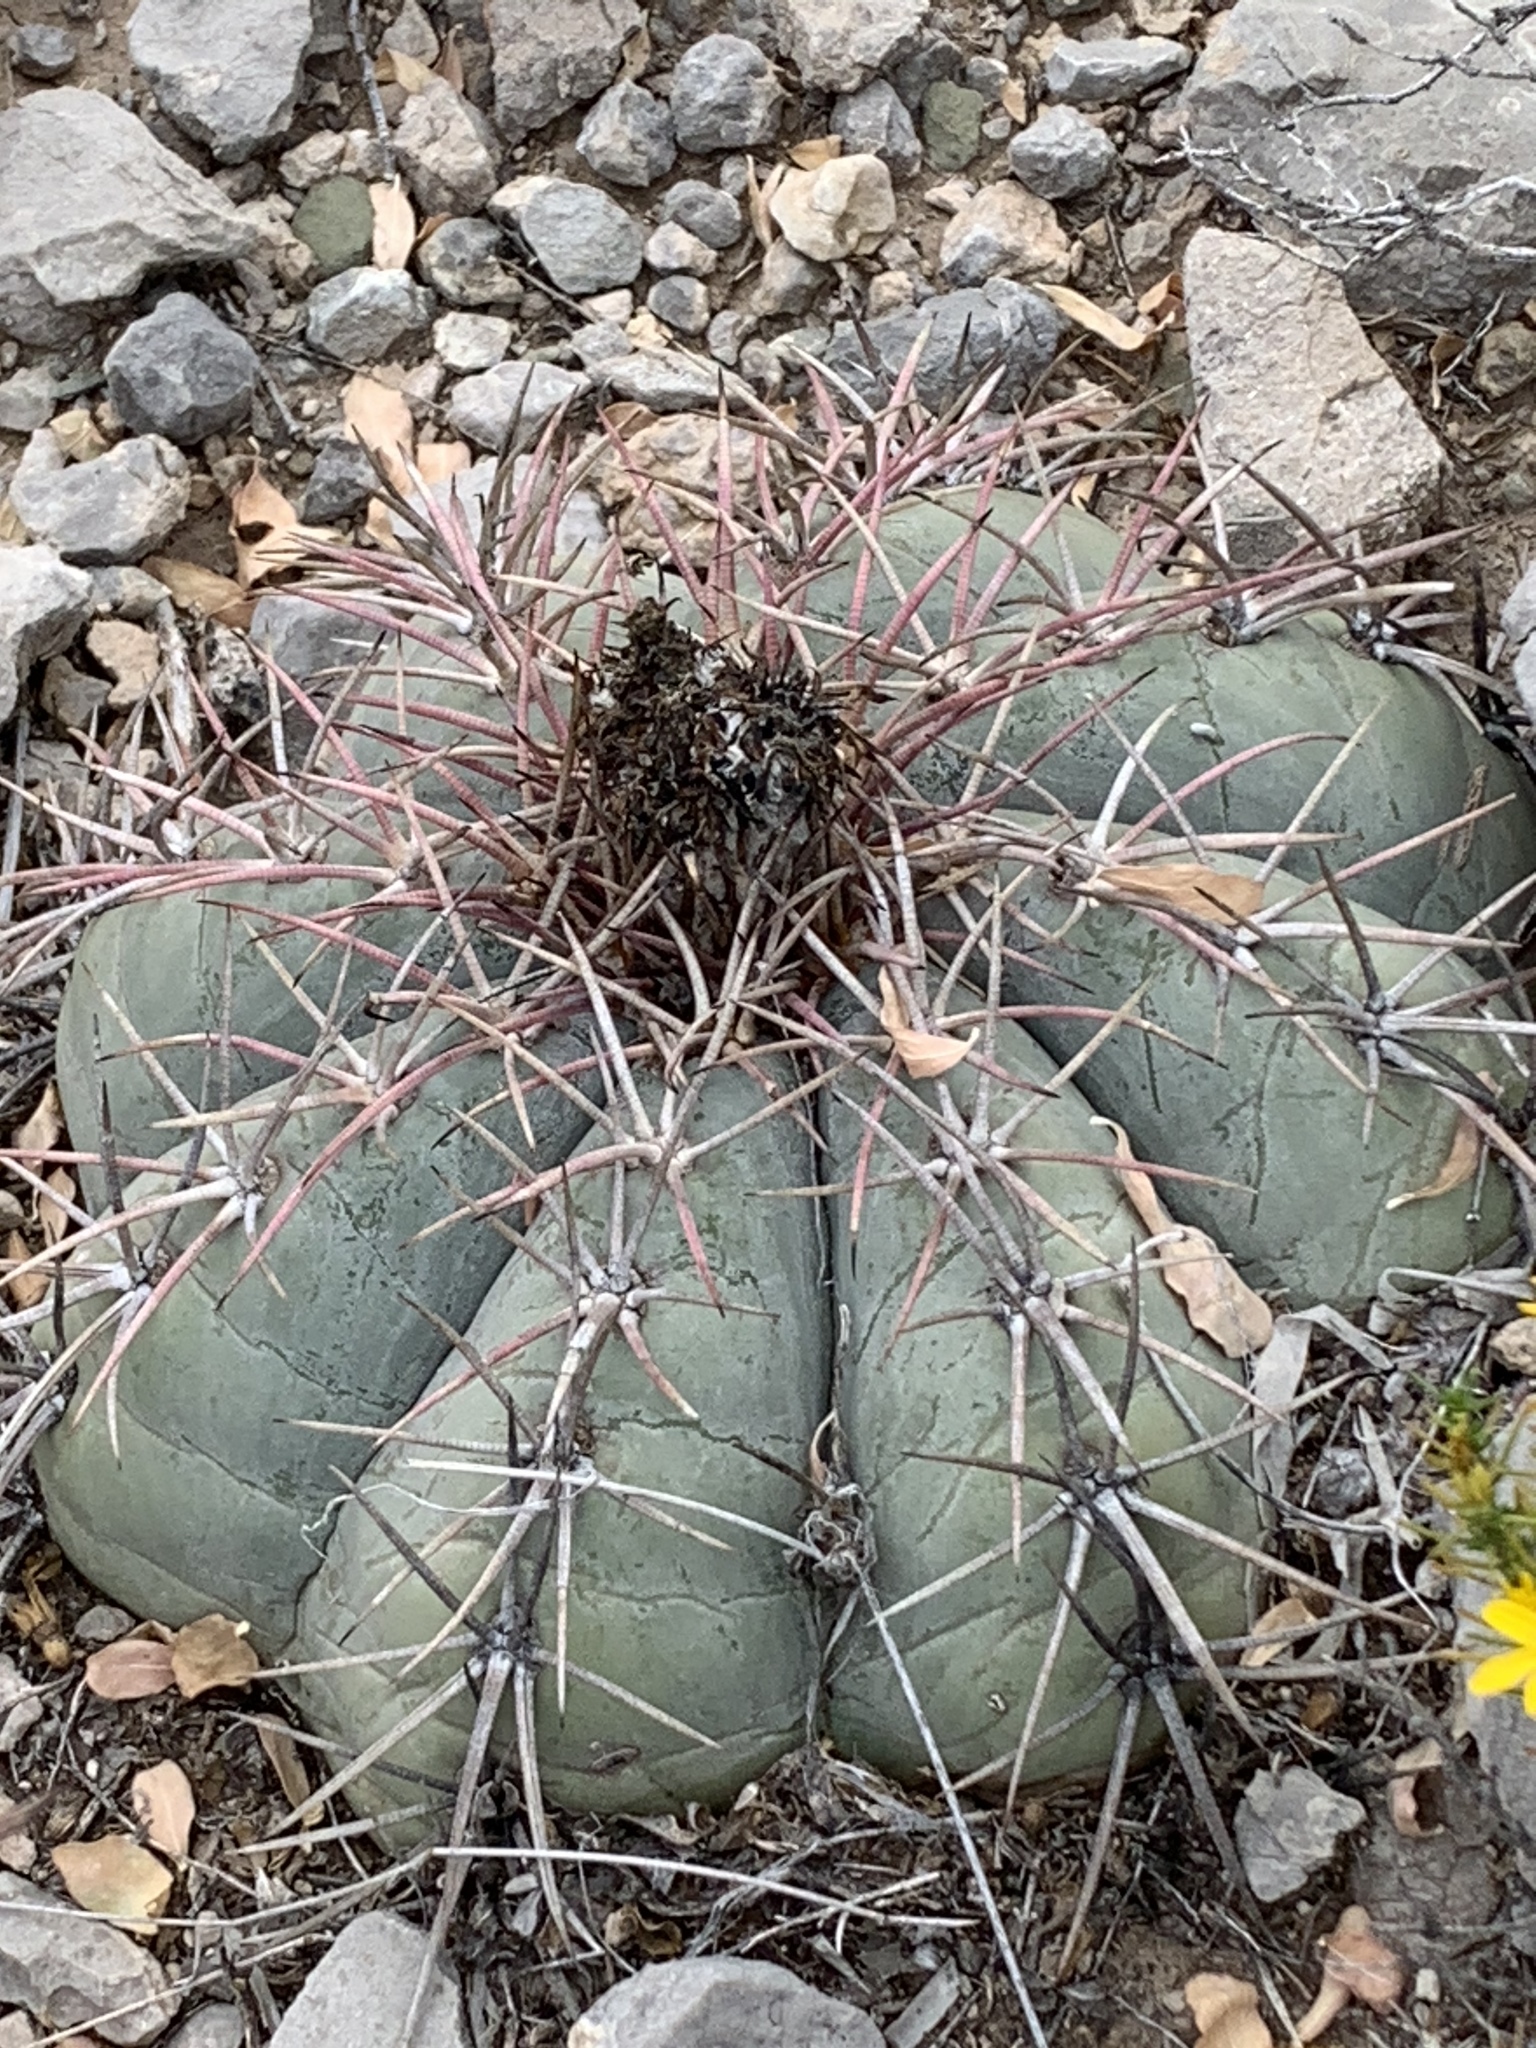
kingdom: Plantae
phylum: Tracheophyta
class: Magnoliopsida
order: Caryophyllales
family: Cactaceae
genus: Echinocactus
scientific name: Echinocactus horizonthalonius
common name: Devilshead
